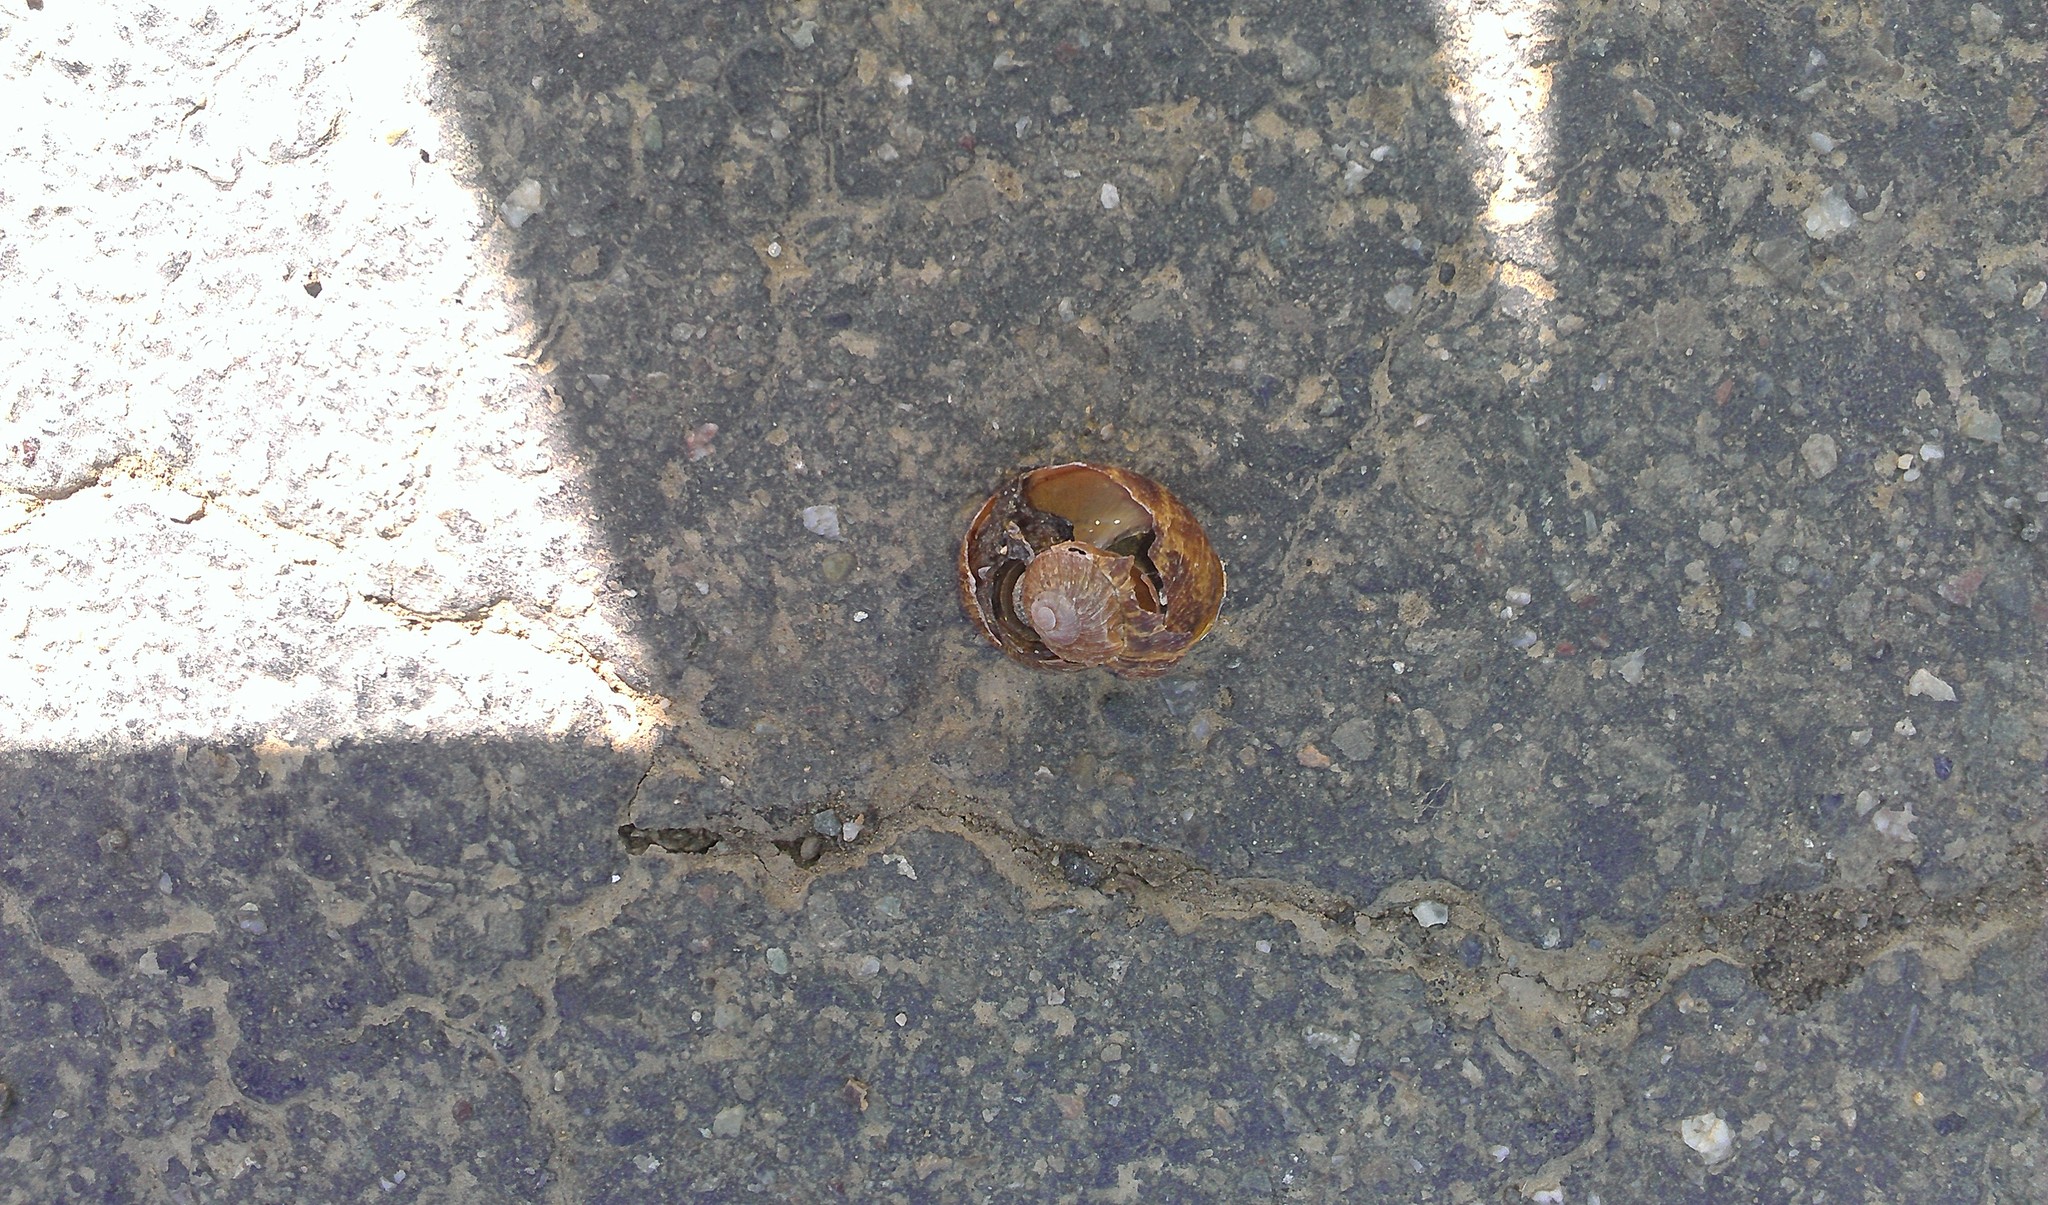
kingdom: Animalia
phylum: Mollusca
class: Gastropoda
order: Stylommatophora
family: Helicidae
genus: Cornu
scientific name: Cornu aspersum
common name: Brown garden snail
